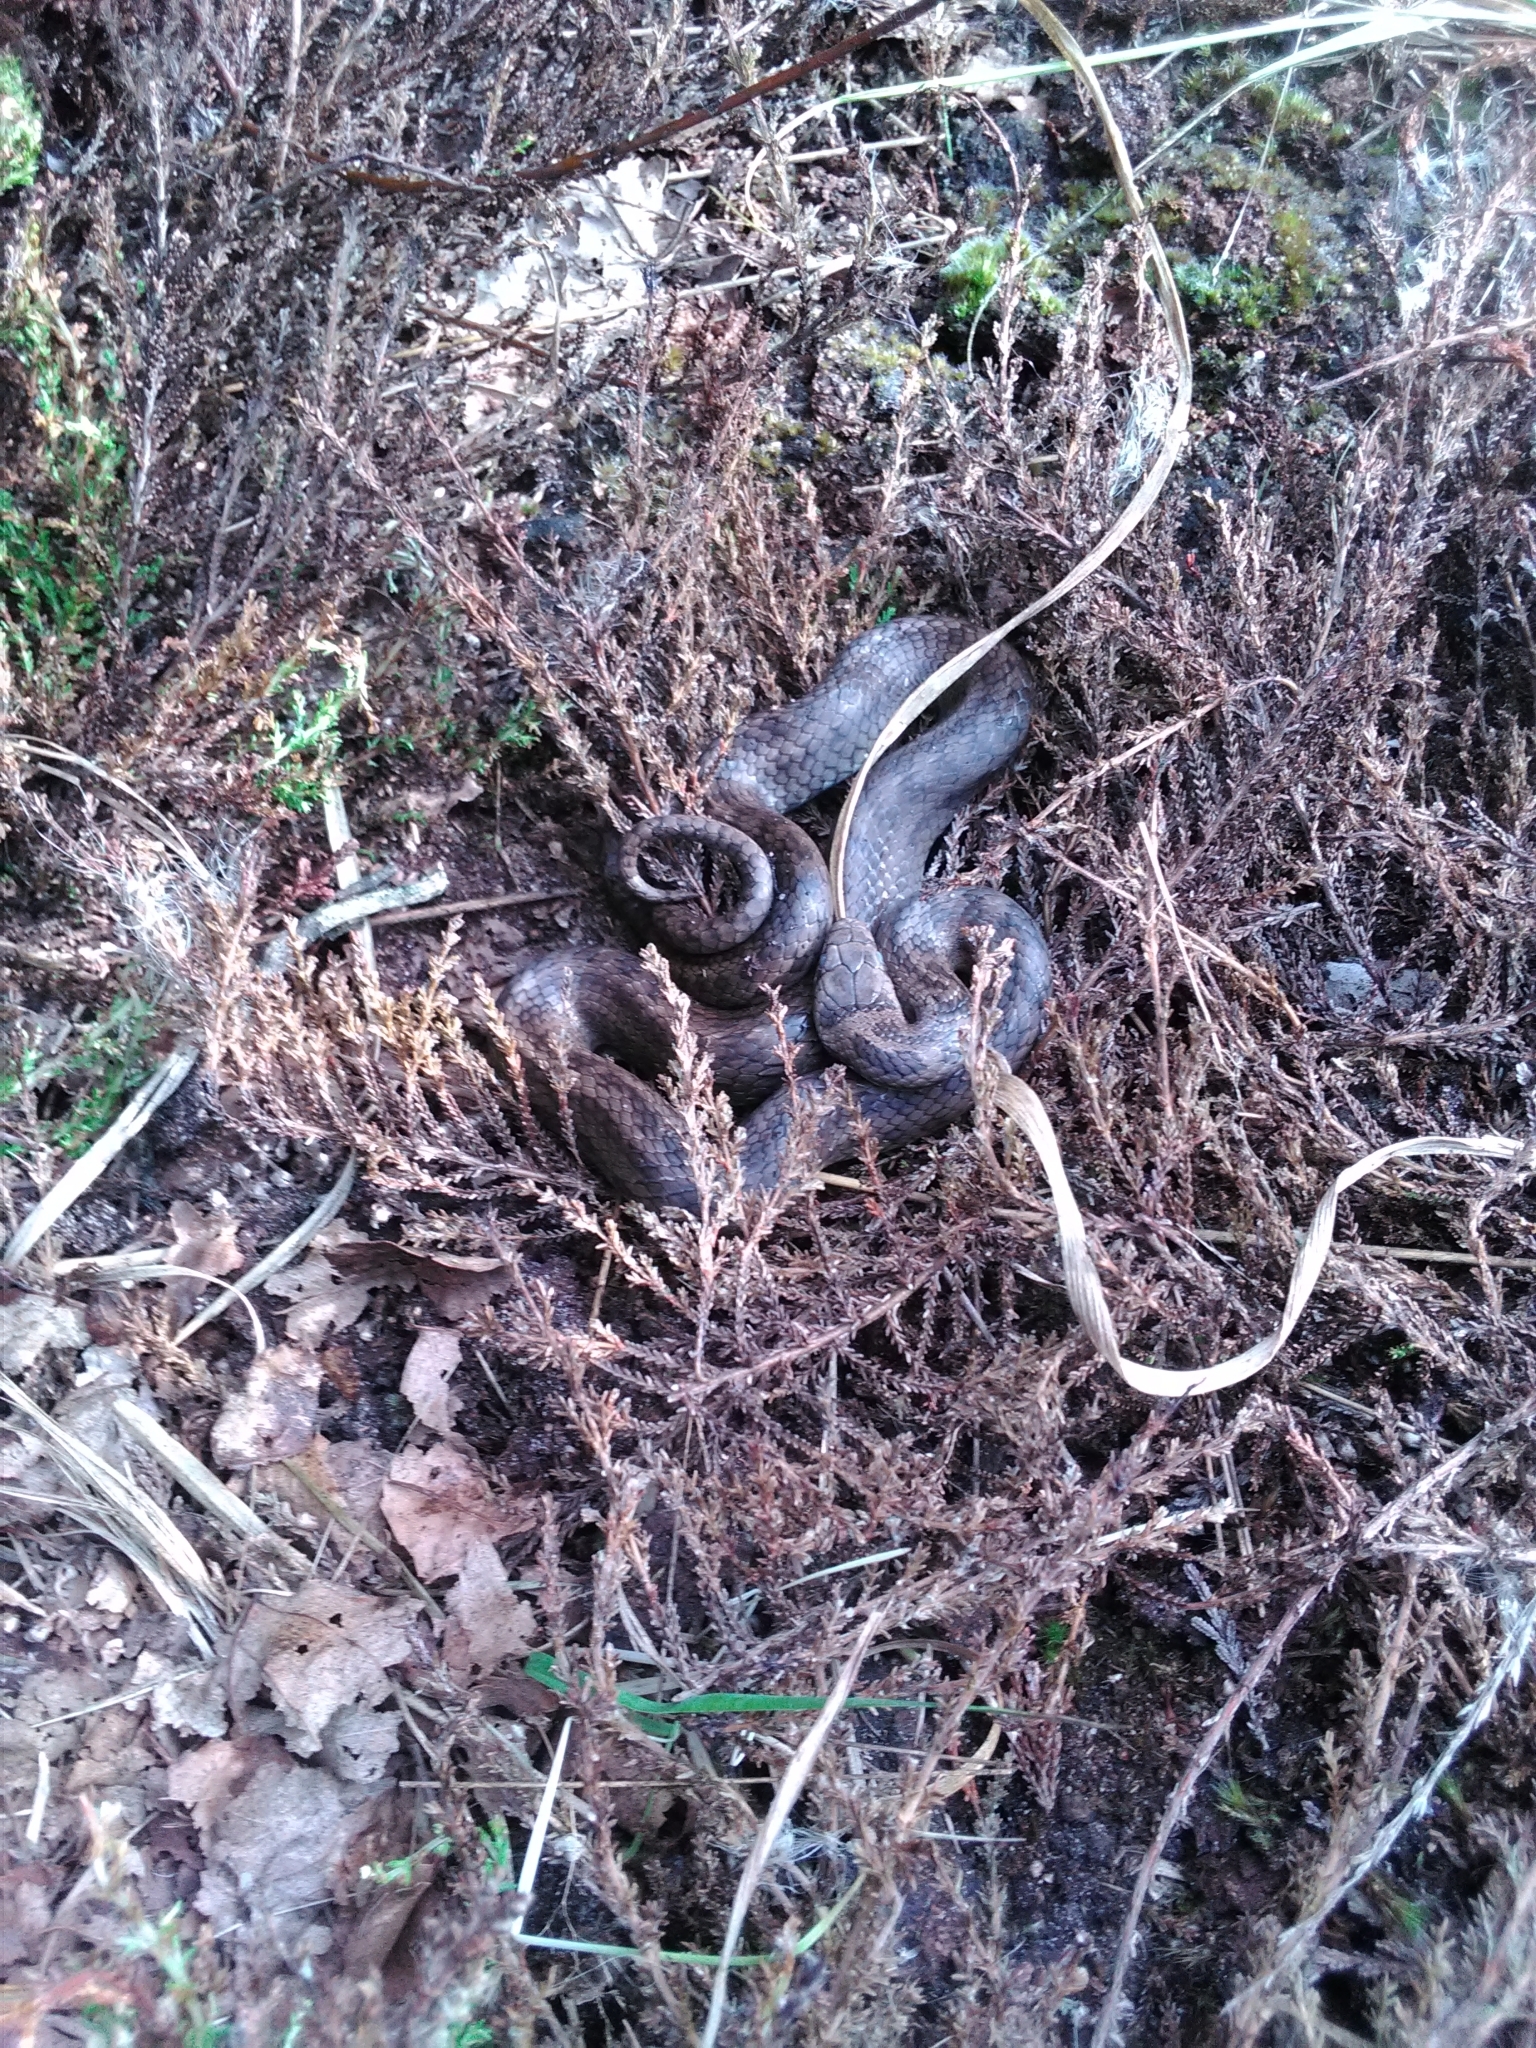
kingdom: Animalia
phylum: Chordata
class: Squamata
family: Colubridae
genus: Coronella
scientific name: Coronella austriaca
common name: Smooth snake
